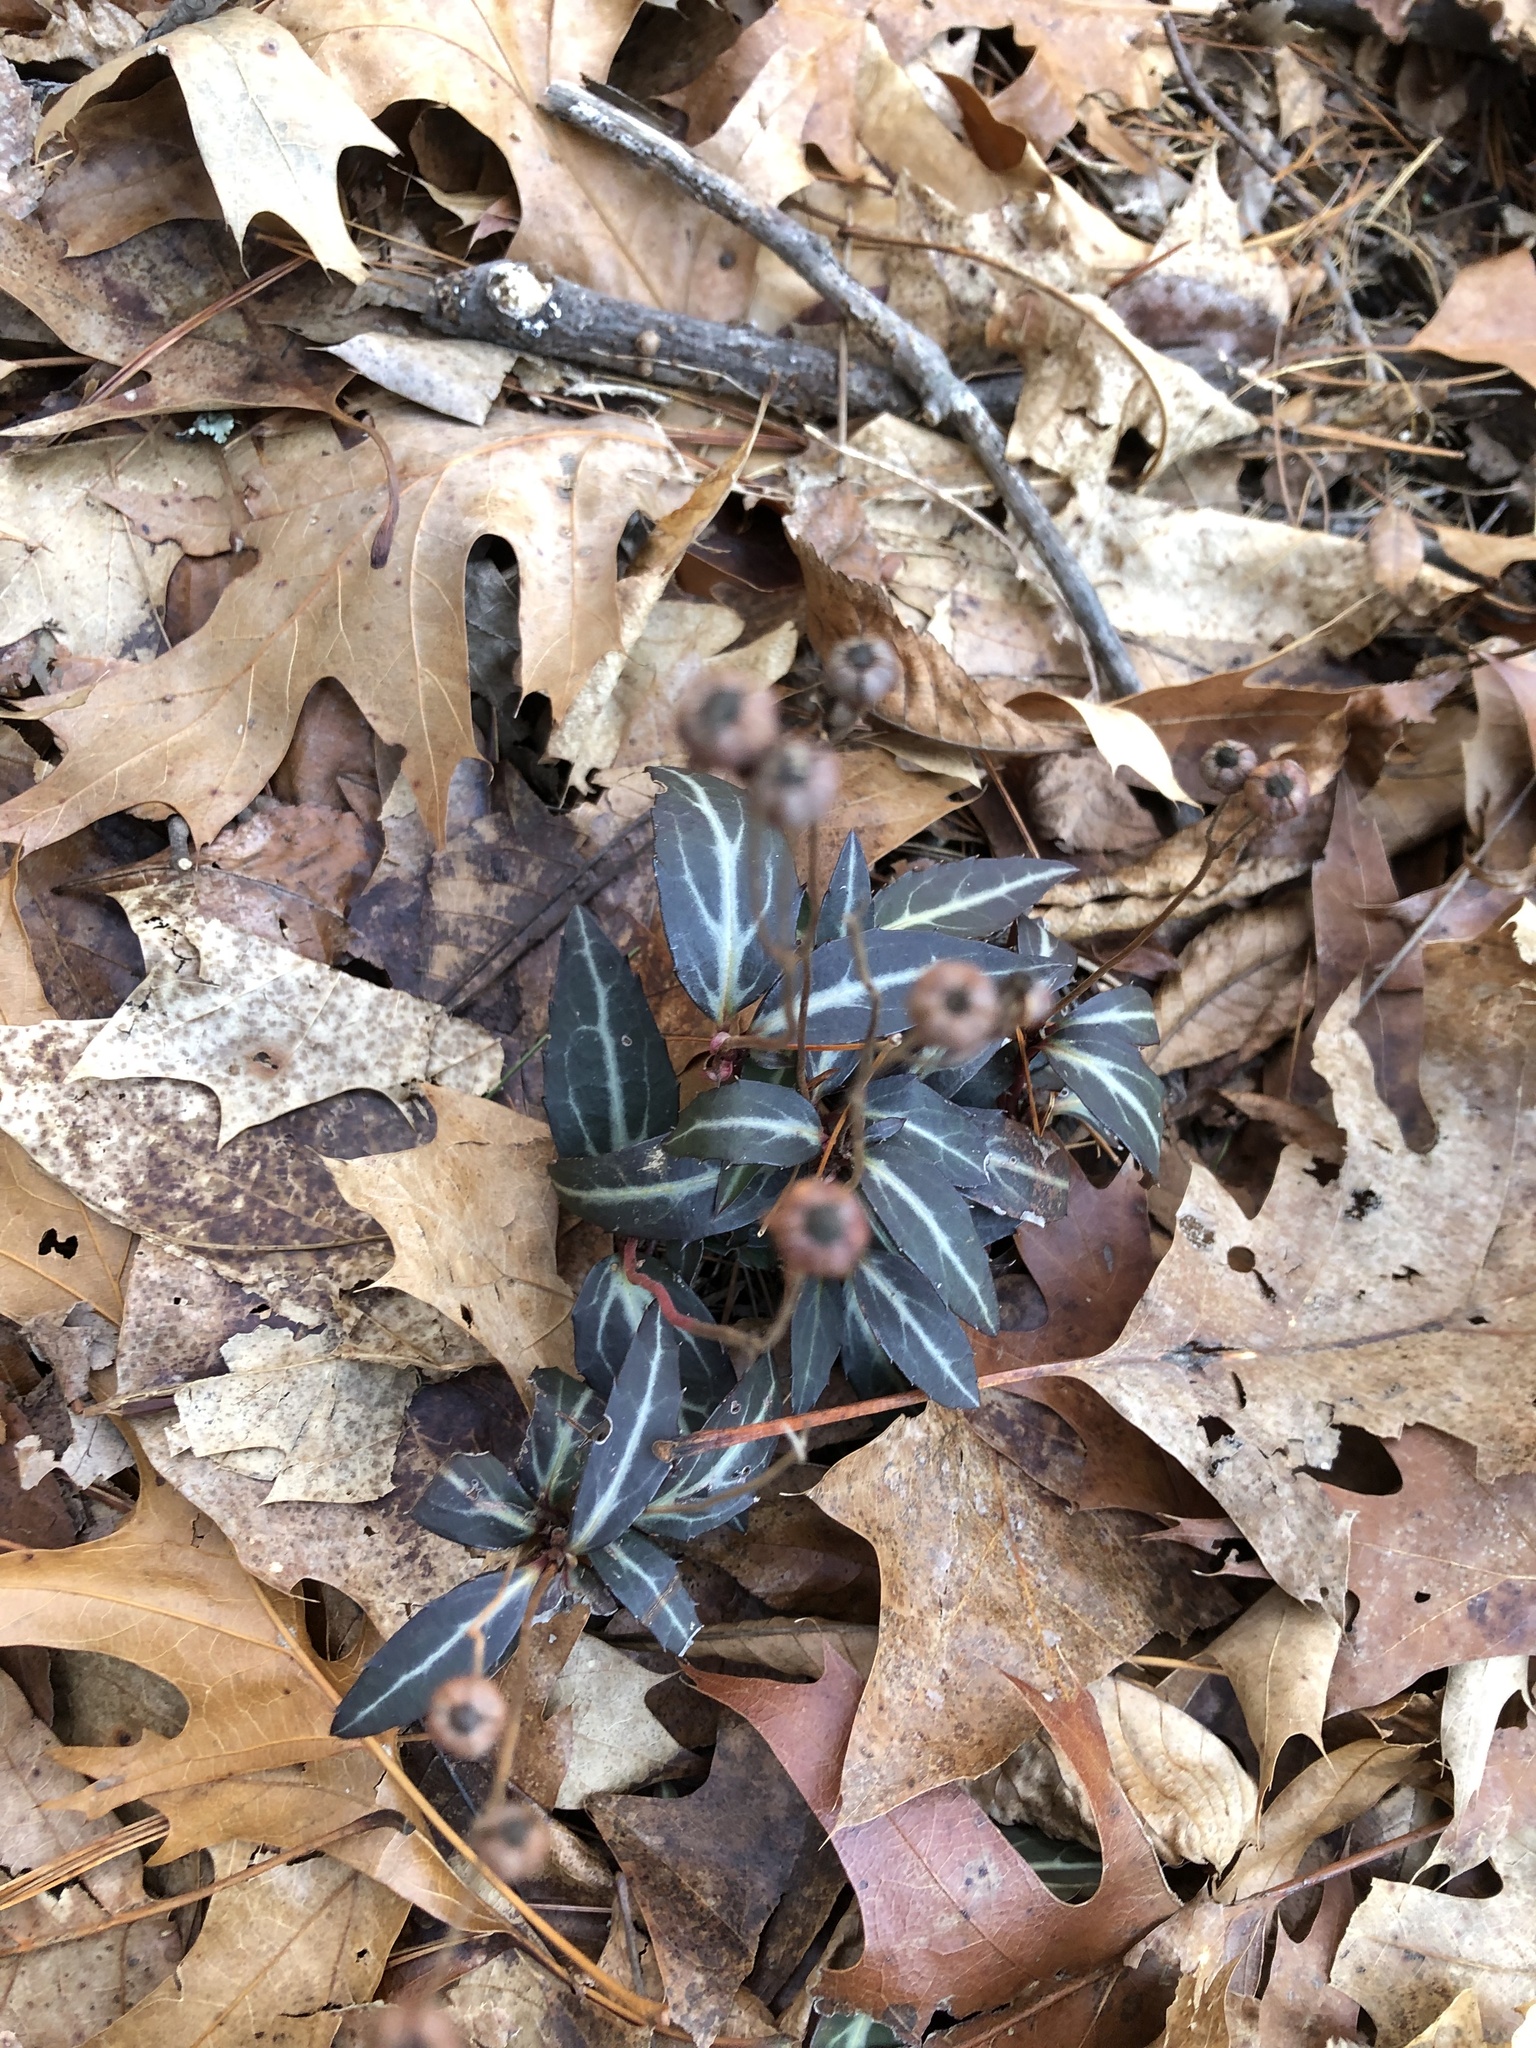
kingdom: Plantae
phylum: Tracheophyta
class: Magnoliopsida
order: Ericales
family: Ericaceae
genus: Chimaphila
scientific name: Chimaphila maculata
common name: Spotted pipsissewa
